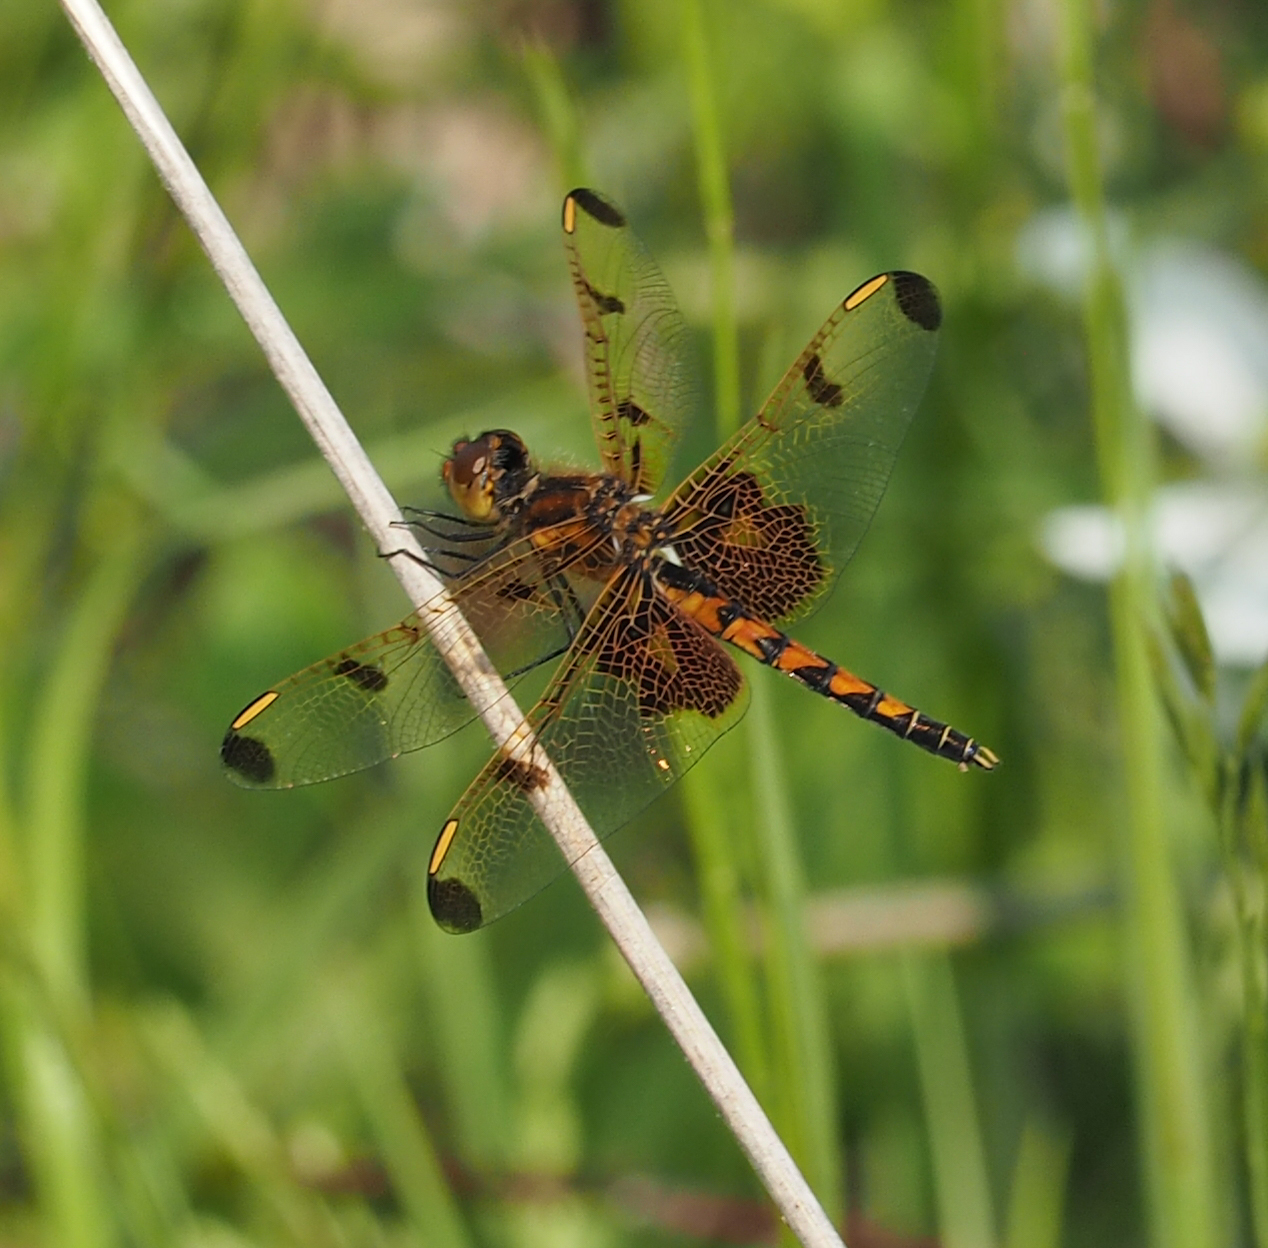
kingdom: Animalia
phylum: Arthropoda
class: Insecta
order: Odonata
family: Libellulidae
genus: Celithemis
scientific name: Celithemis elisa
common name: Calico pennant
